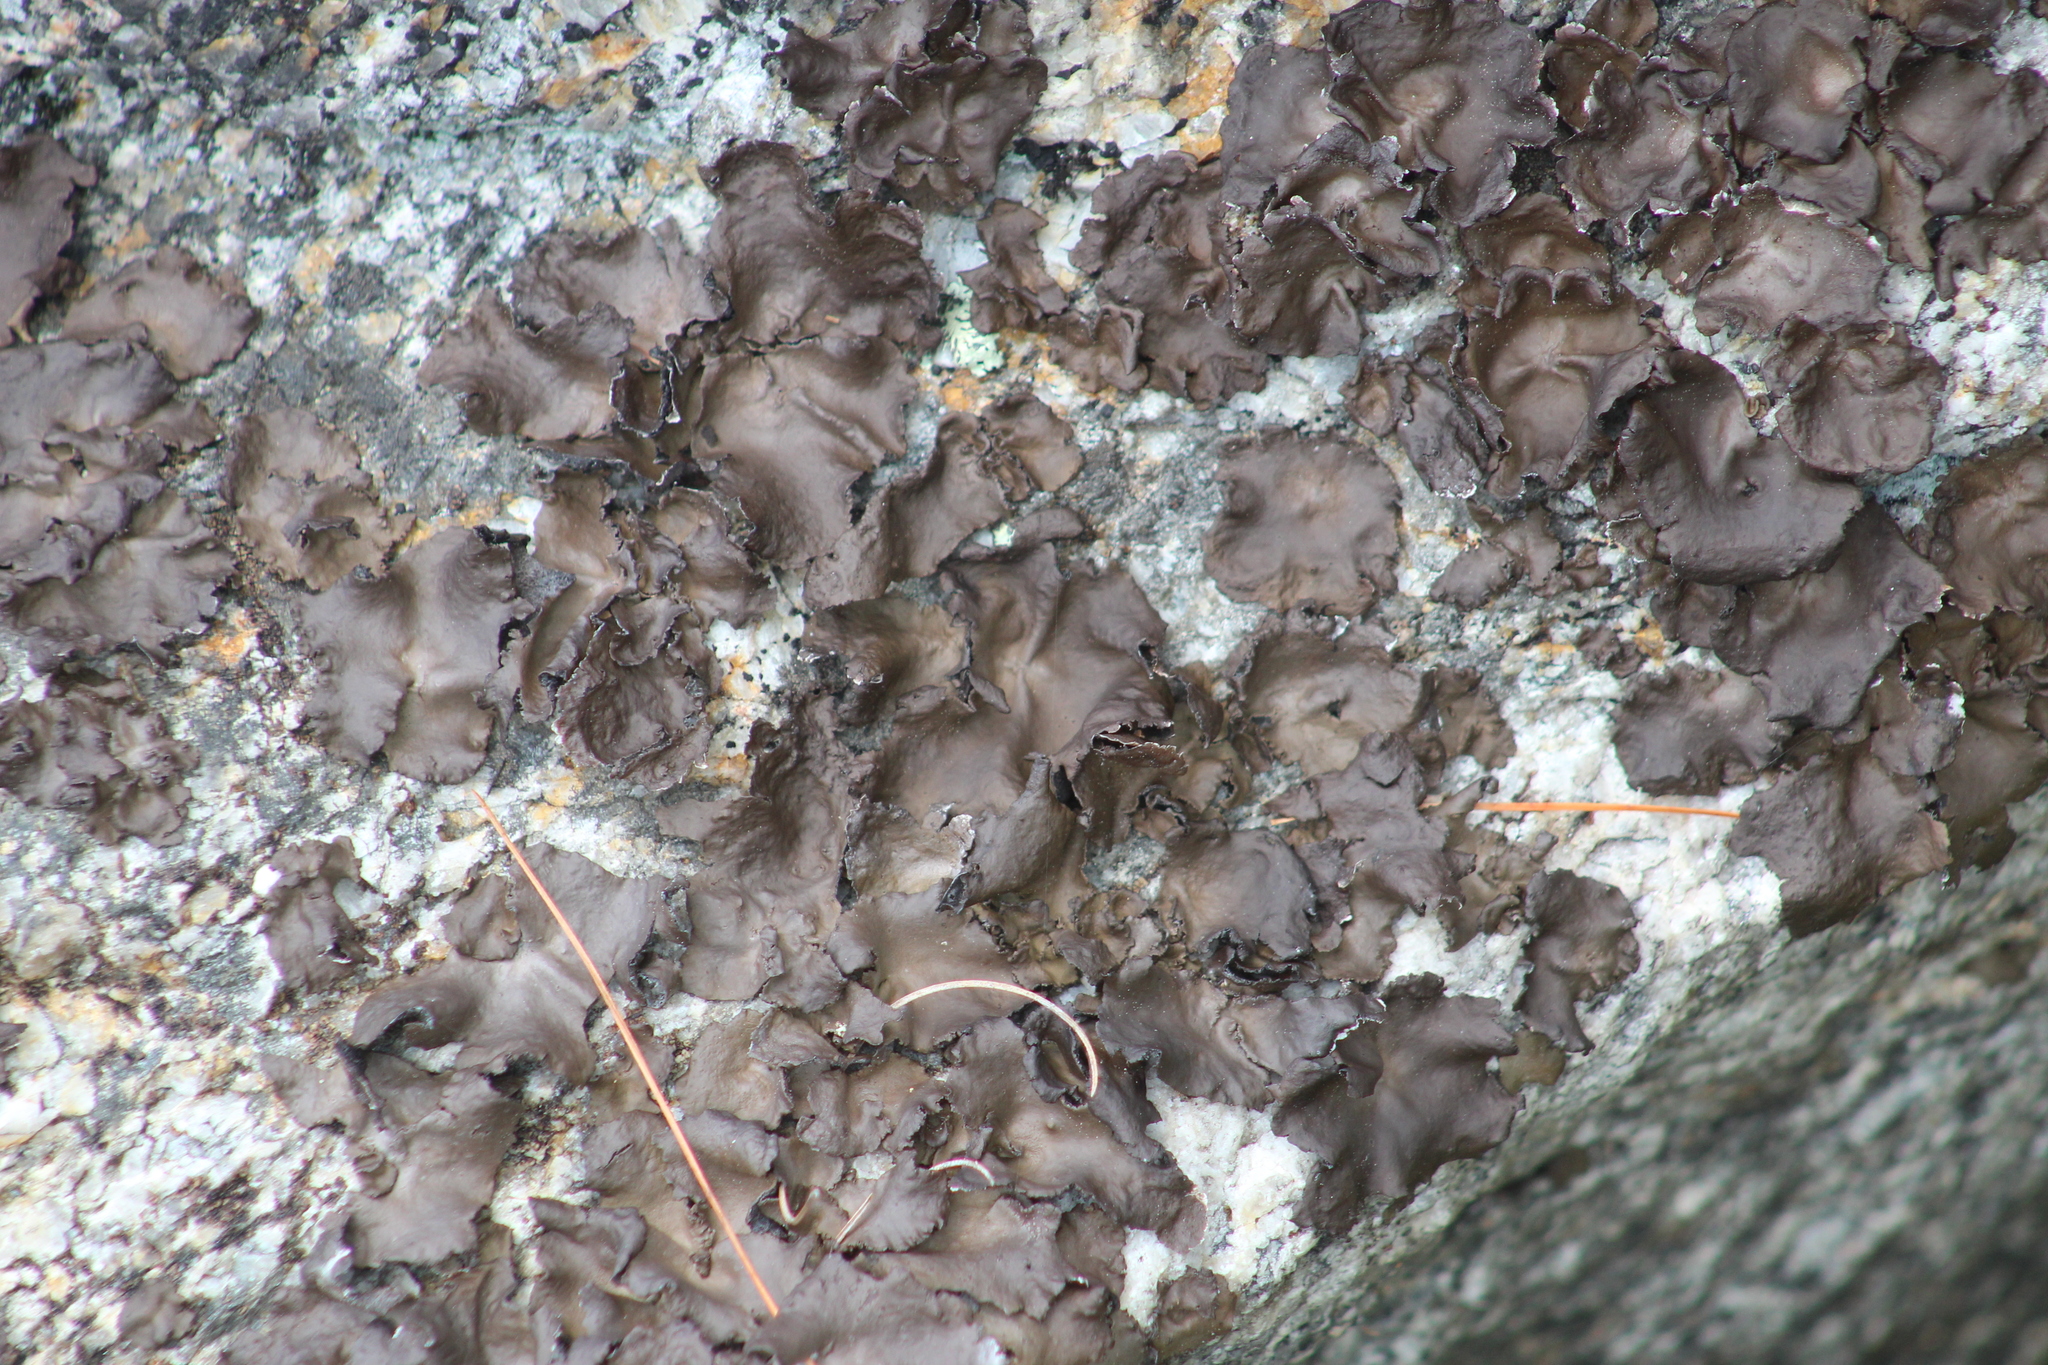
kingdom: Fungi
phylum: Ascomycota
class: Lecanoromycetes
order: Umbilicariales
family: Umbilicariaceae
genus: Umbilicaria
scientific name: Umbilicaria muhlenbergii
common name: Lesser rocktripe
